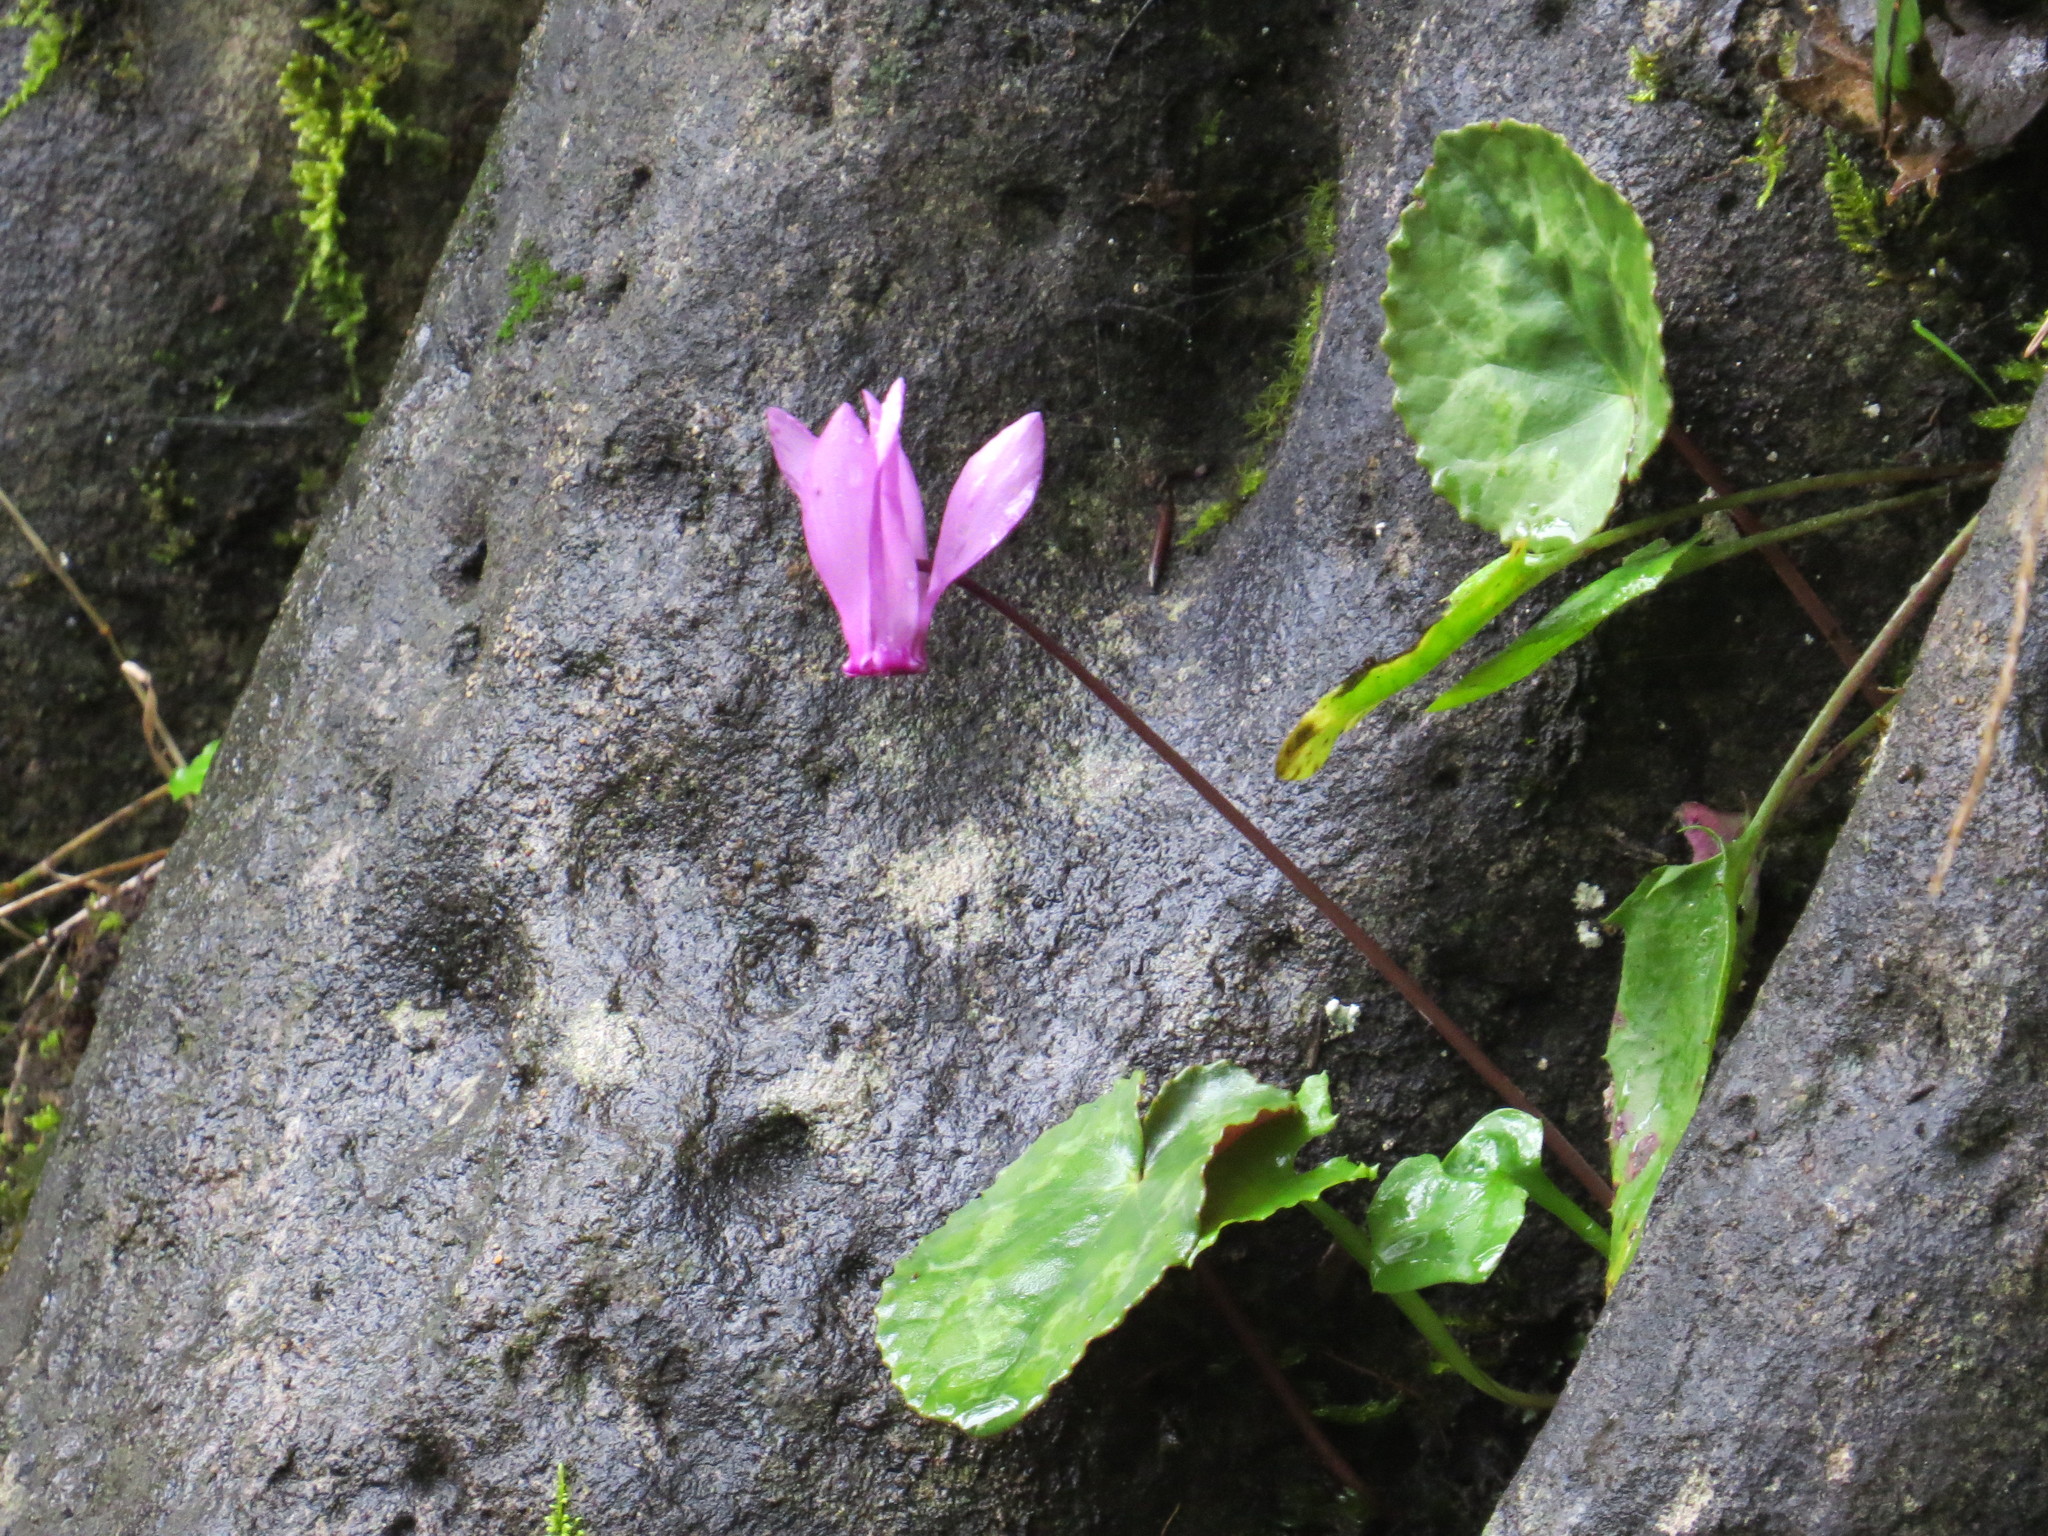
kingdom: Plantae
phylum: Tracheophyta
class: Magnoliopsida
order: Ericales
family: Primulaceae
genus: Cyclamen
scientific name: Cyclamen purpurascens
